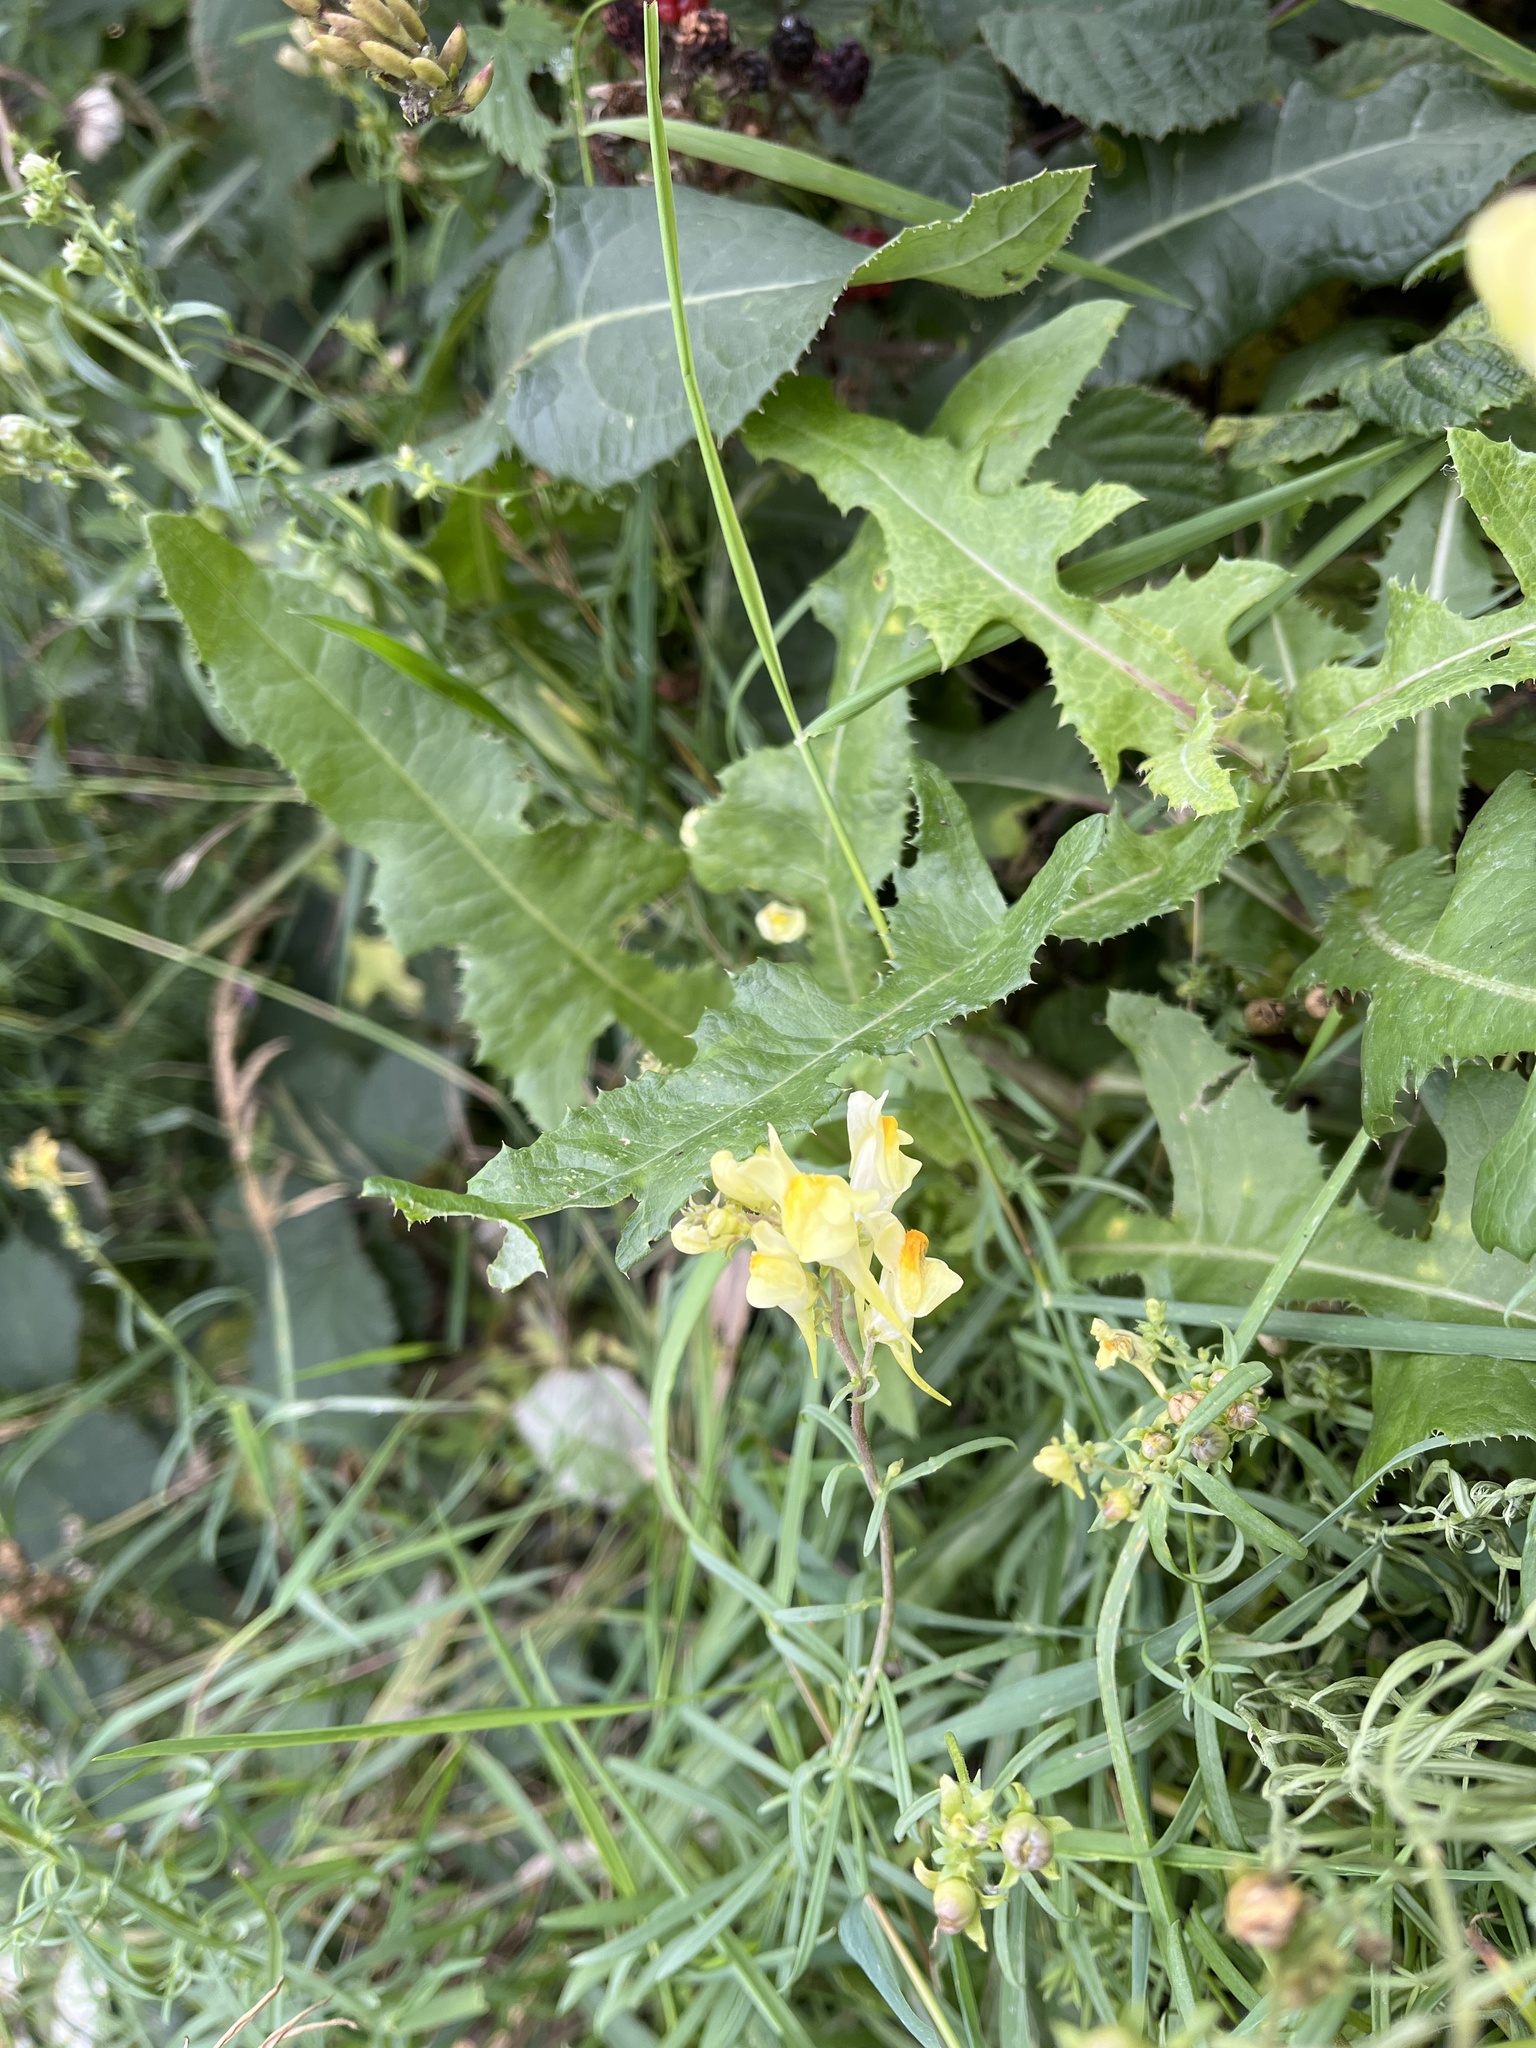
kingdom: Plantae
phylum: Tracheophyta
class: Magnoliopsida
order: Lamiales
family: Plantaginaceae
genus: Linaria
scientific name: Linaria vulgaris
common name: Butter and eggs
